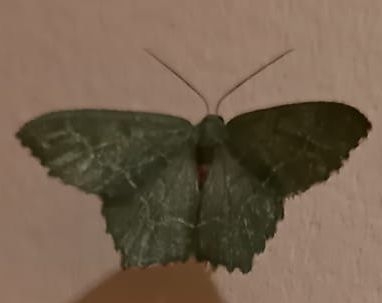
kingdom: Animalia
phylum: Arthropoda
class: Insecta
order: Lepidoptera
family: Geometridae
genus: Hemithea
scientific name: Hemithea aestivaria
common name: Common emerald
